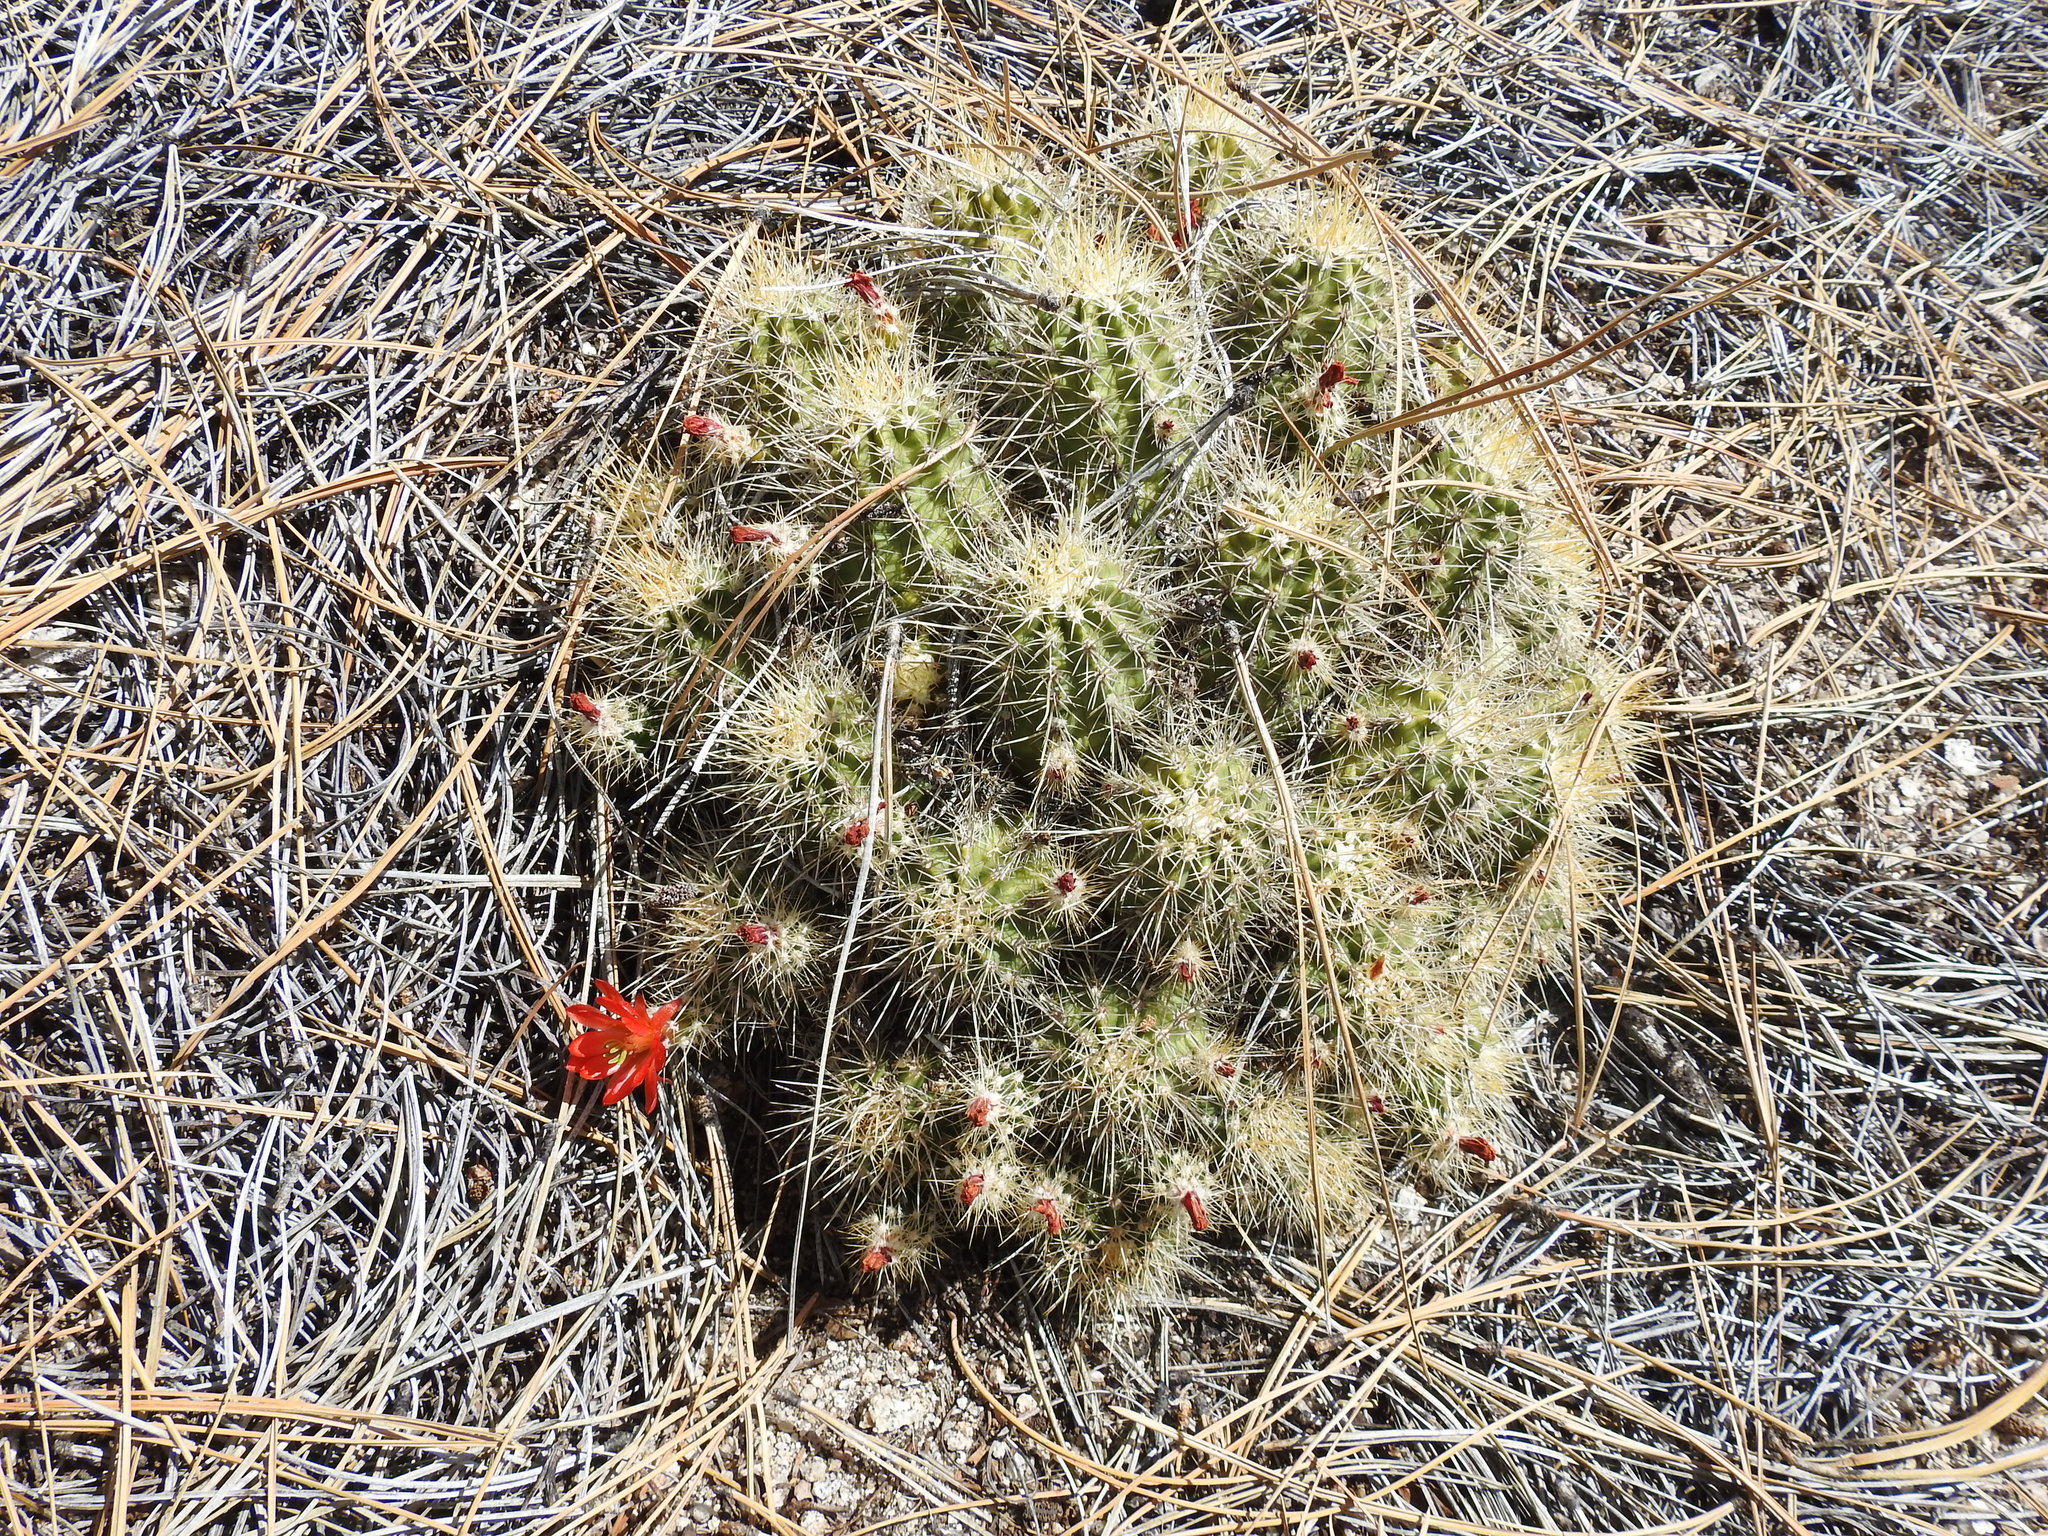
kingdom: Plantae
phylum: Tracheophyta
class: Magnoliopsida
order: Caryophyllales
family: Cactaceae
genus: Echinocereus
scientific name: Echinocereus pacificus
